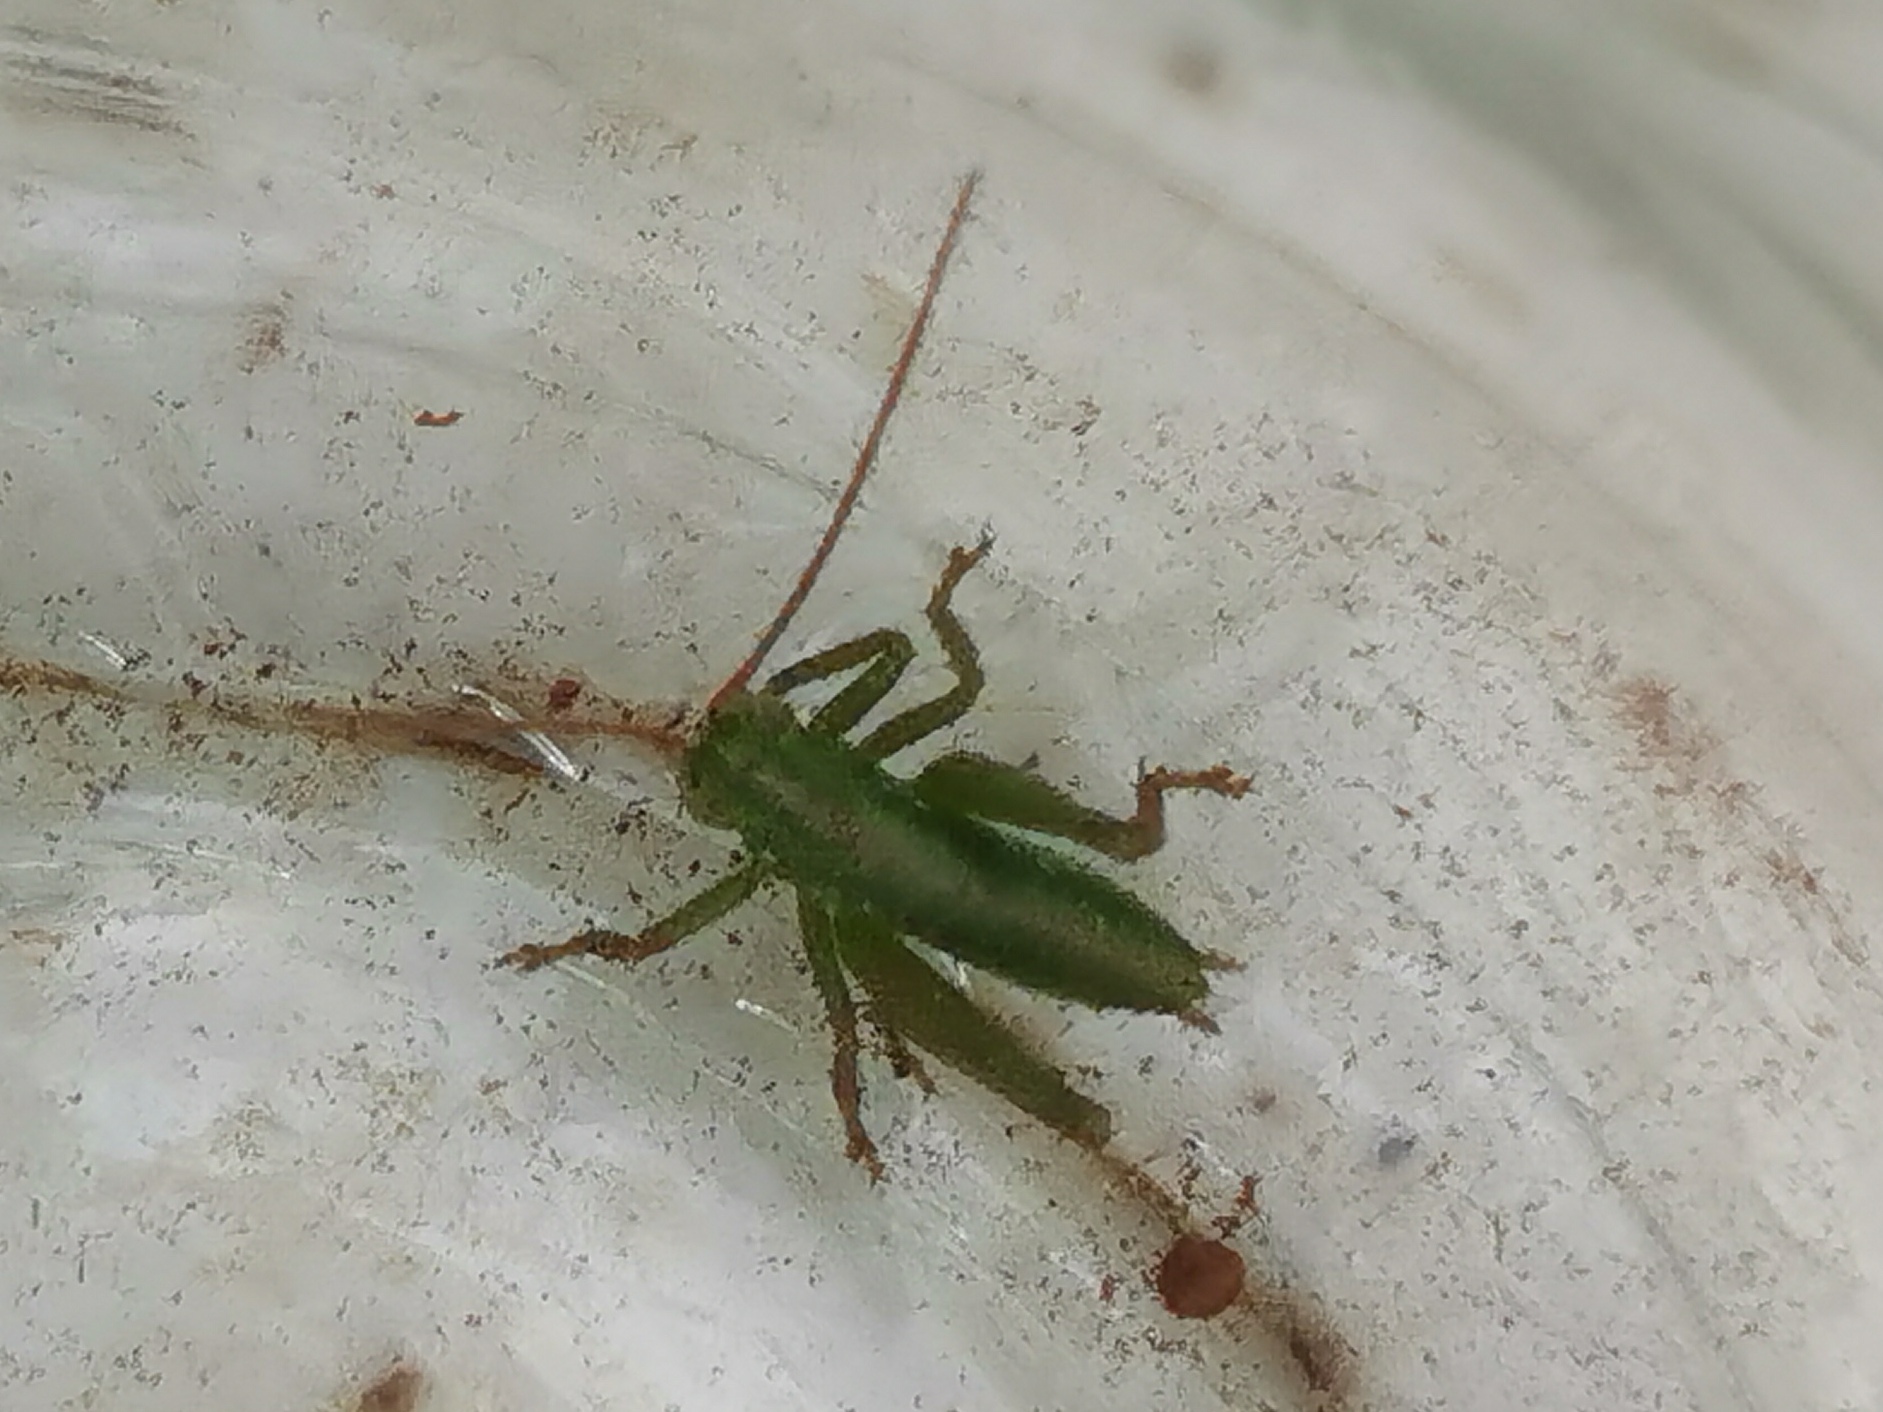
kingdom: Animalia
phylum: Arthropoda
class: Insecta
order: Orthoptera
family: Tettigoniidae
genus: Tettigonia
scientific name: Tettigonia viridissima
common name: Great green bush-cricket
